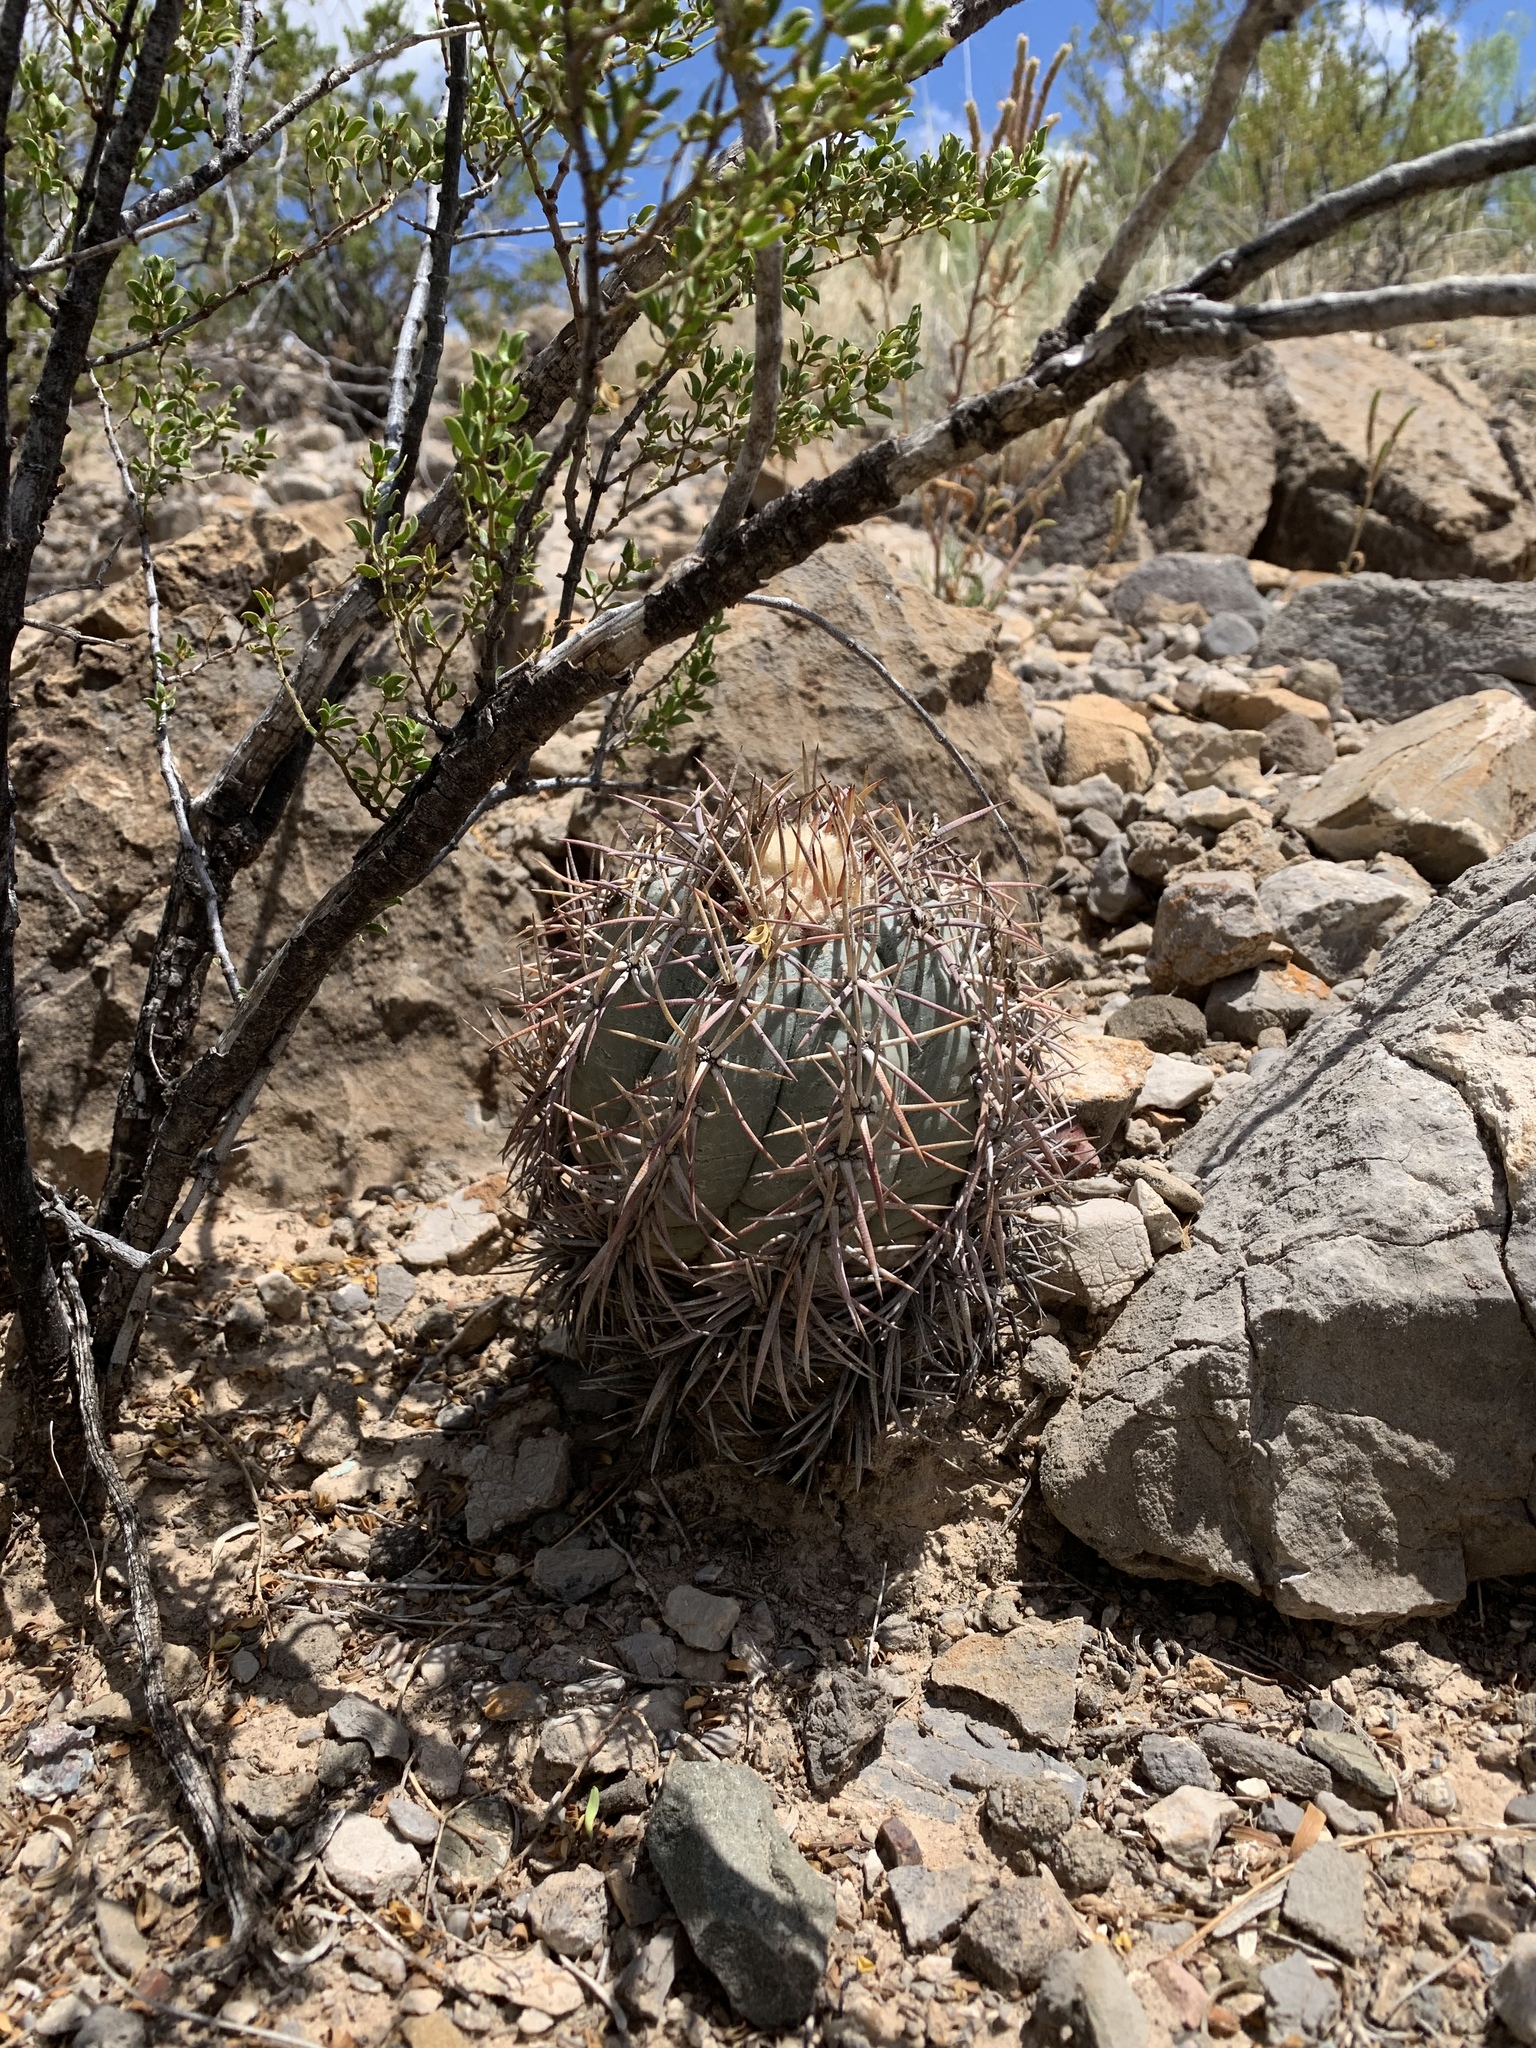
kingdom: Plantae
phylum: Tracheophyta
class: Magnoliopsida
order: Caryophyllales
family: Cactaceae
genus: Echinocactus
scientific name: Echinocactus horizonthalonius
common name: Devilshead
